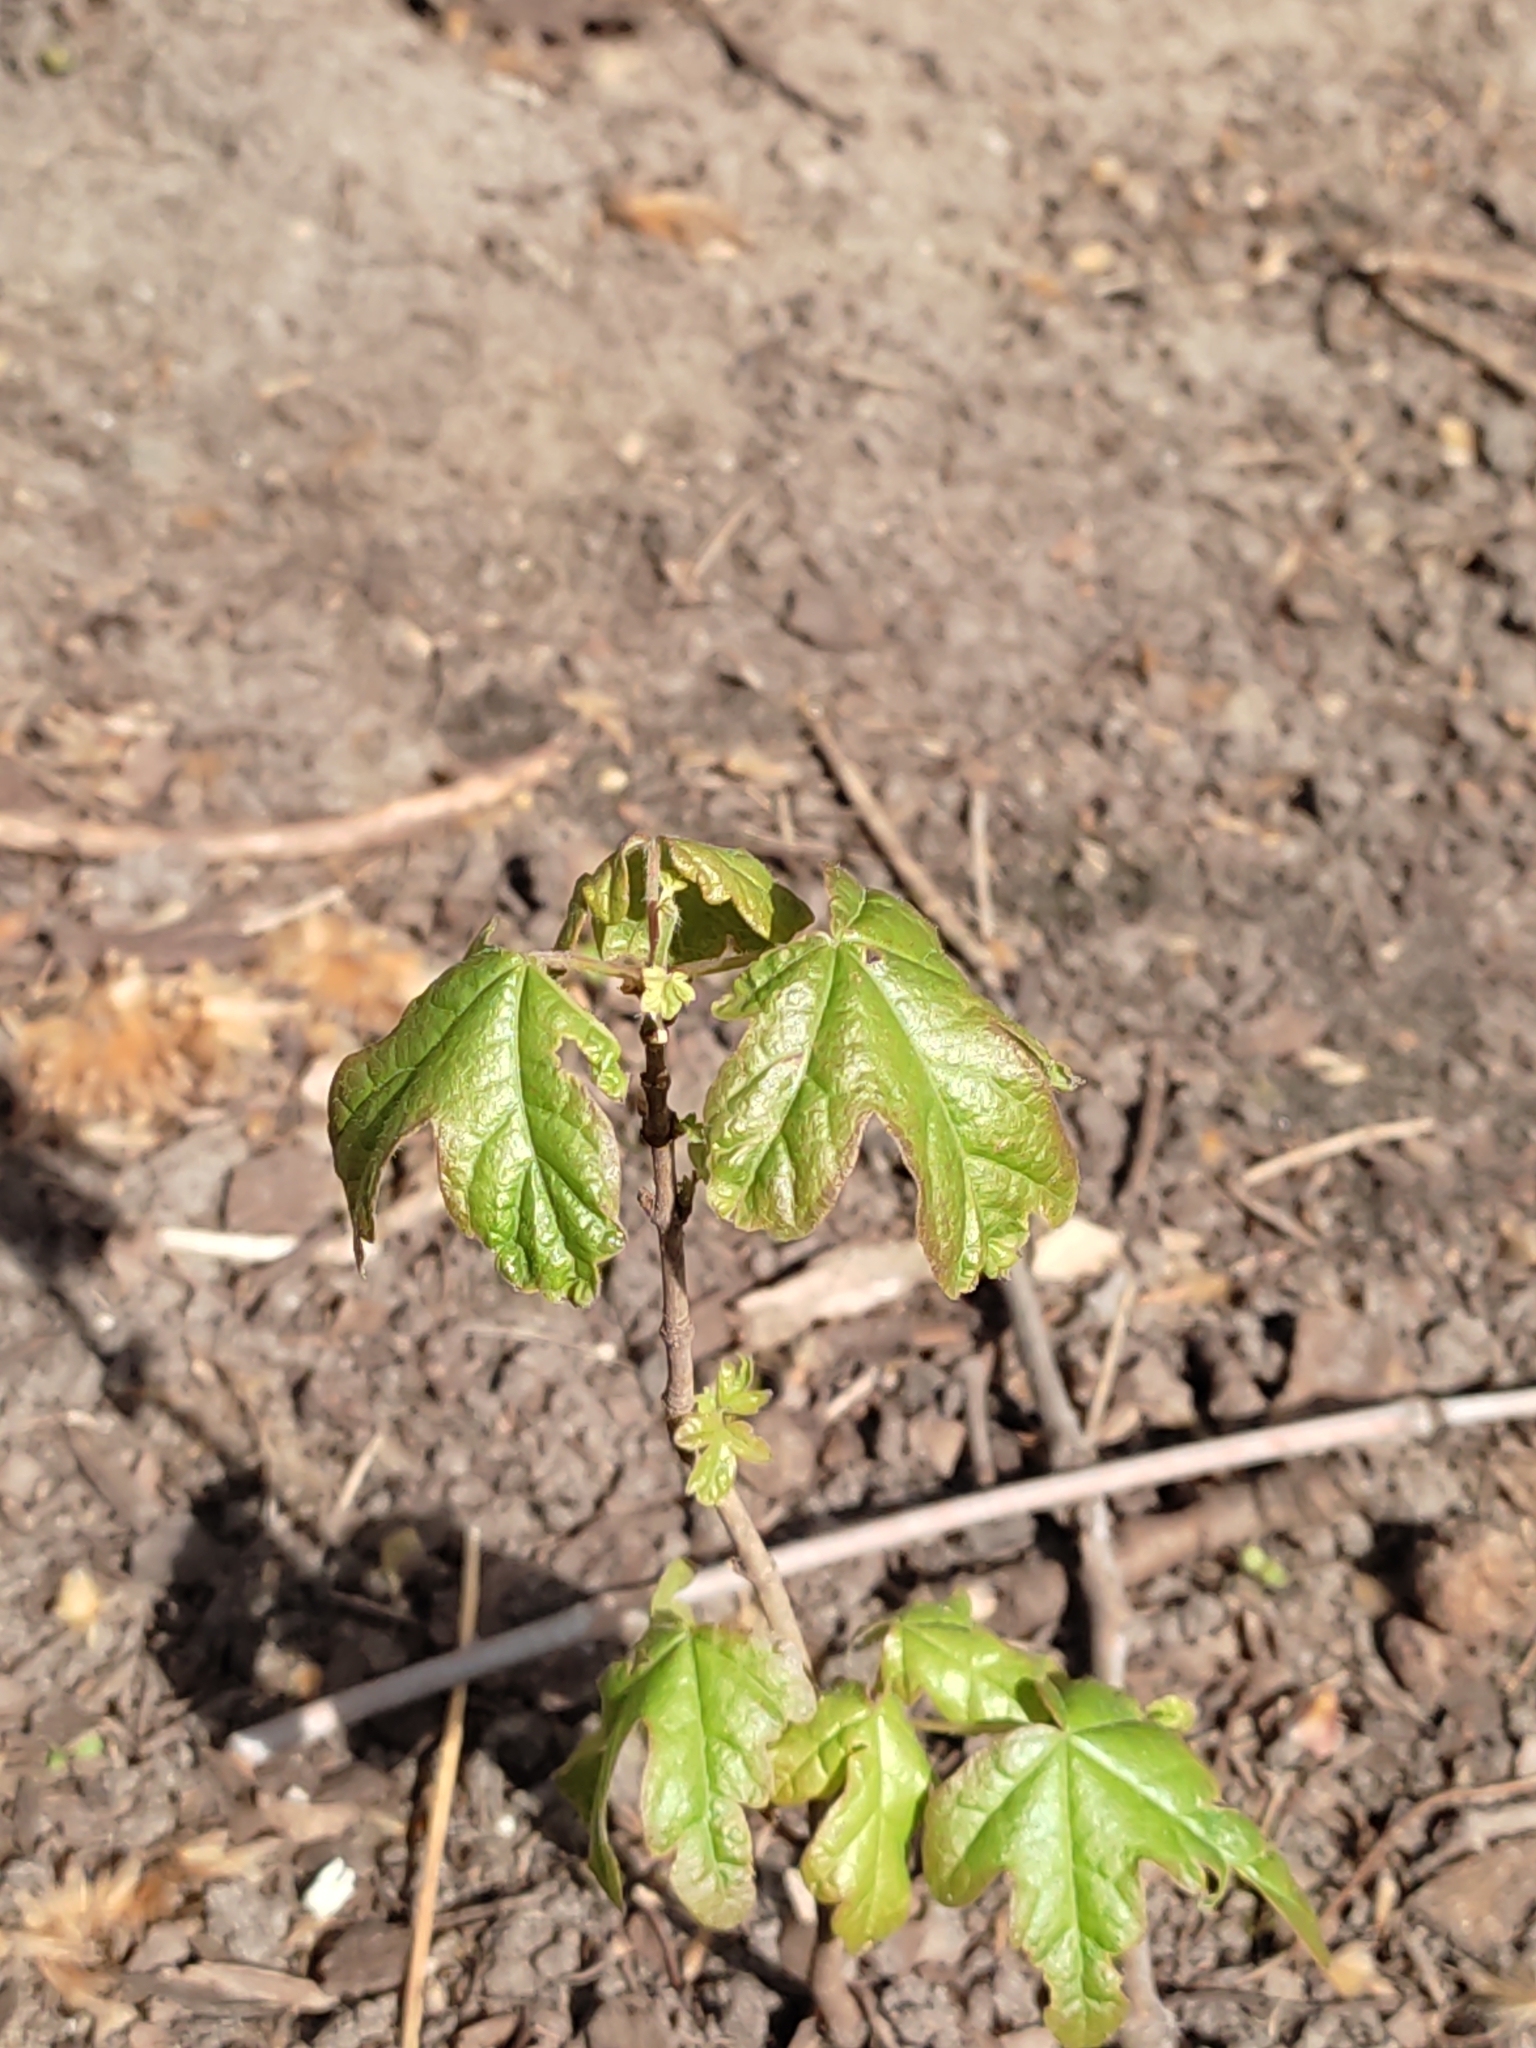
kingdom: Plantae
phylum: Tracheophyta
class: Magnoliopsida
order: Sapindales
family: Sapindaceae
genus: Acer
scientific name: Acer campestre
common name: Field maple
